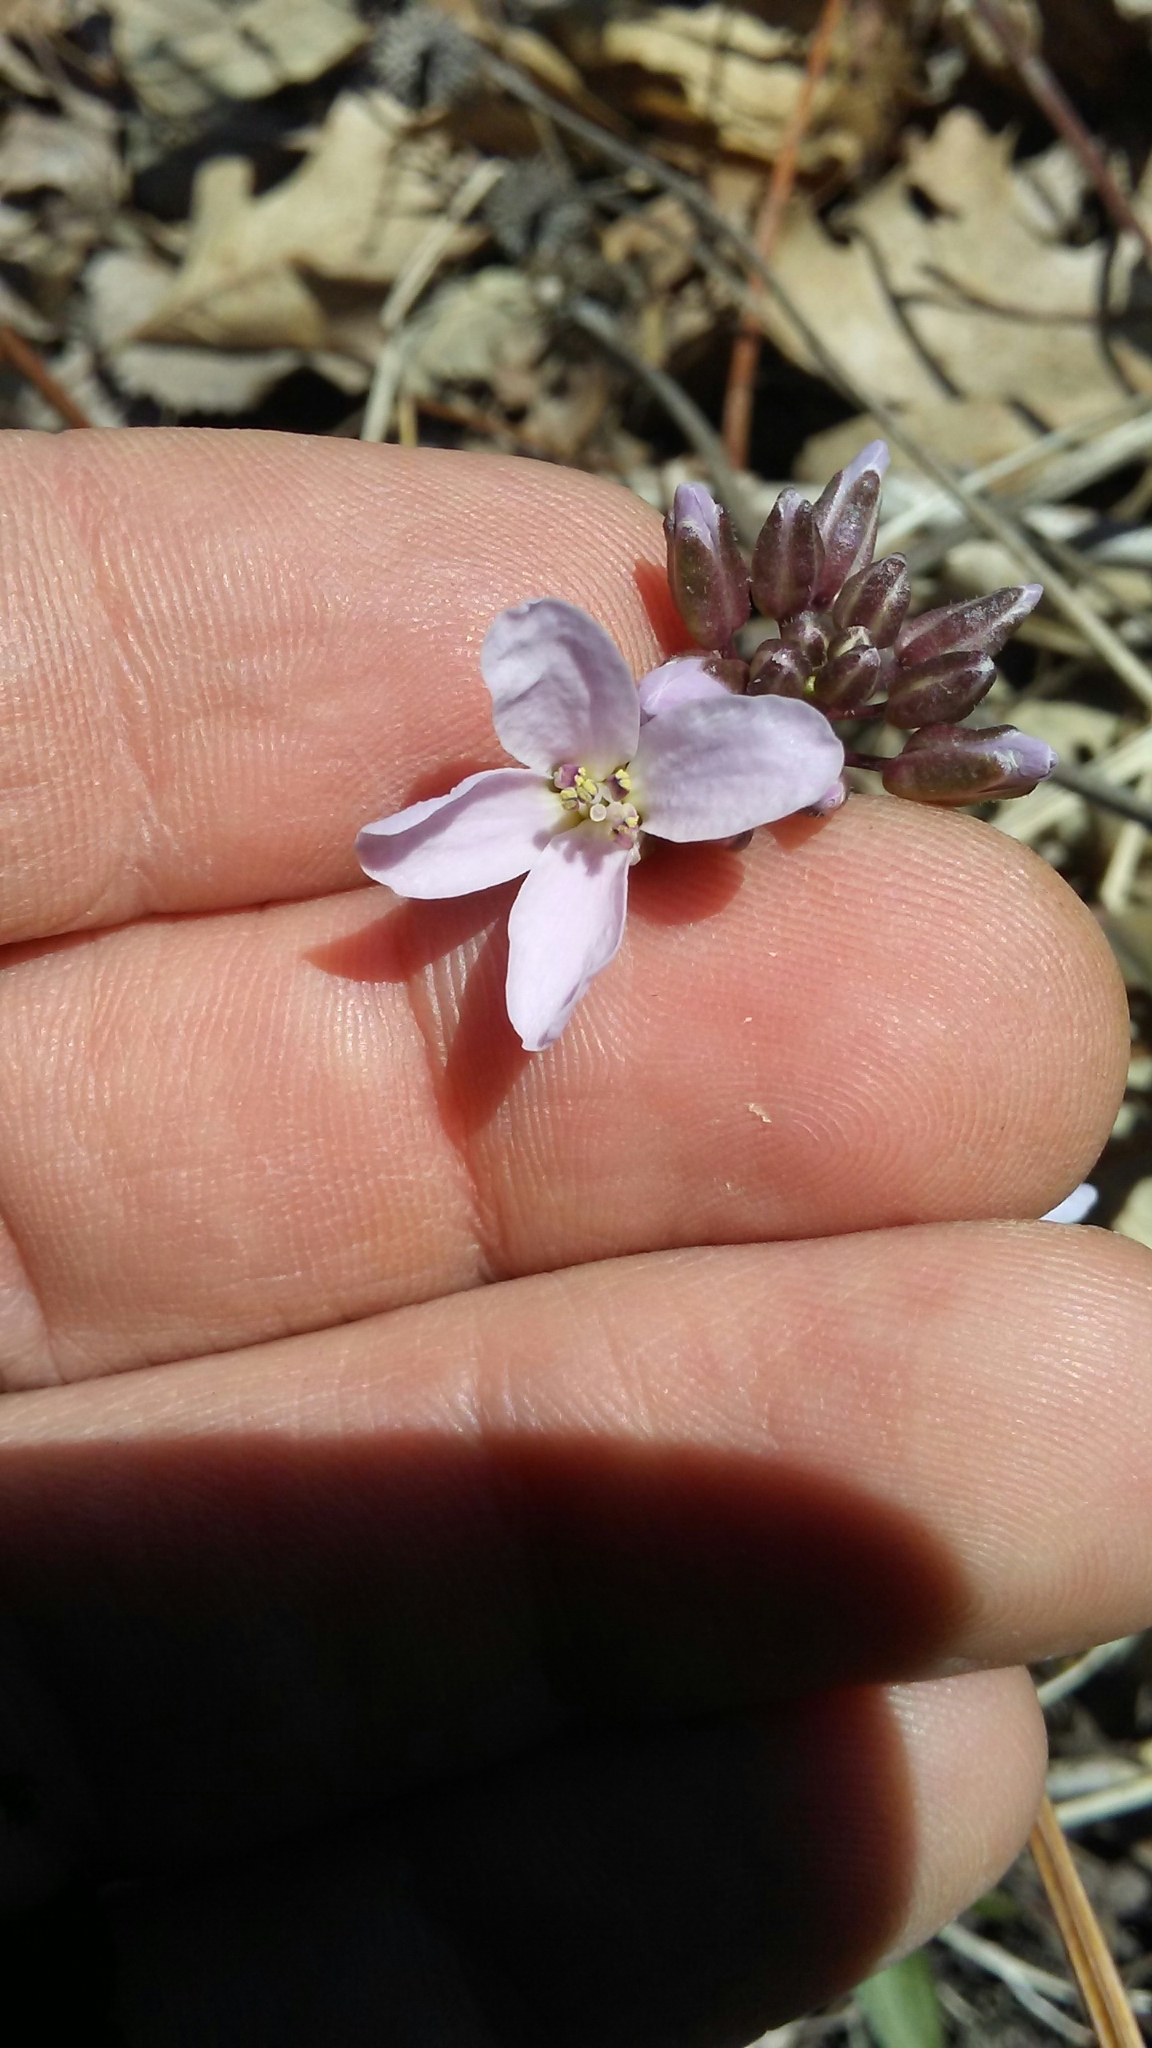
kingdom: Plantae
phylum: Tracheophyta
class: Magnoliopsida
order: Brassicales
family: Brassicaceae
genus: Cardamine
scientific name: Cardamine douglassii
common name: Purple cress
